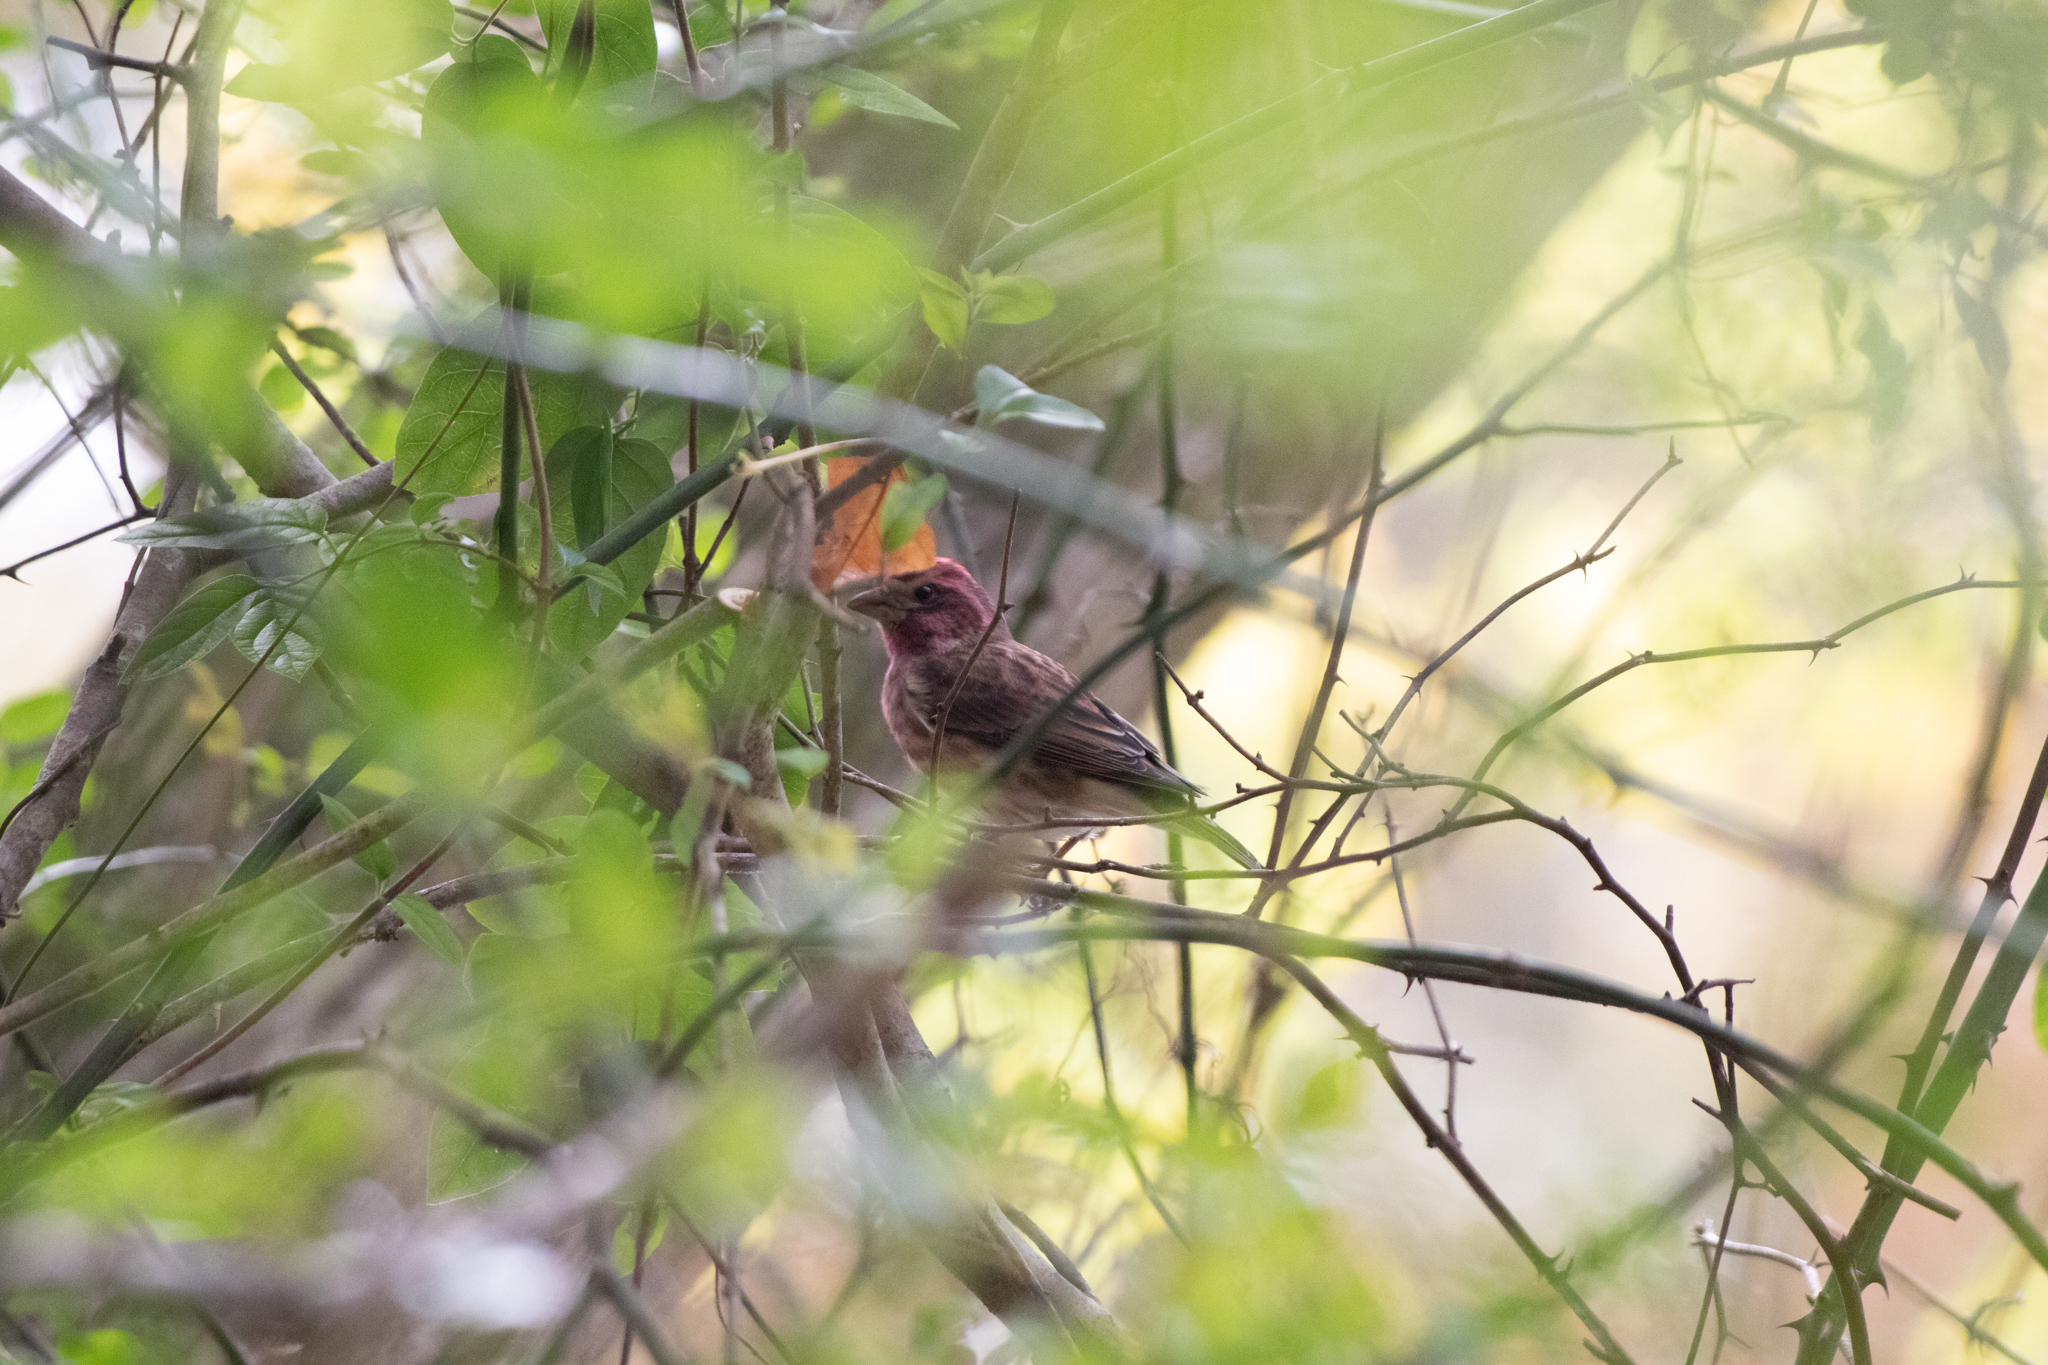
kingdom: Animalia
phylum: Chordata
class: Aves
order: Passeriformes
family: Fringillidae
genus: Haemorhous
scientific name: Haemorhous purpureus
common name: Purple finch
